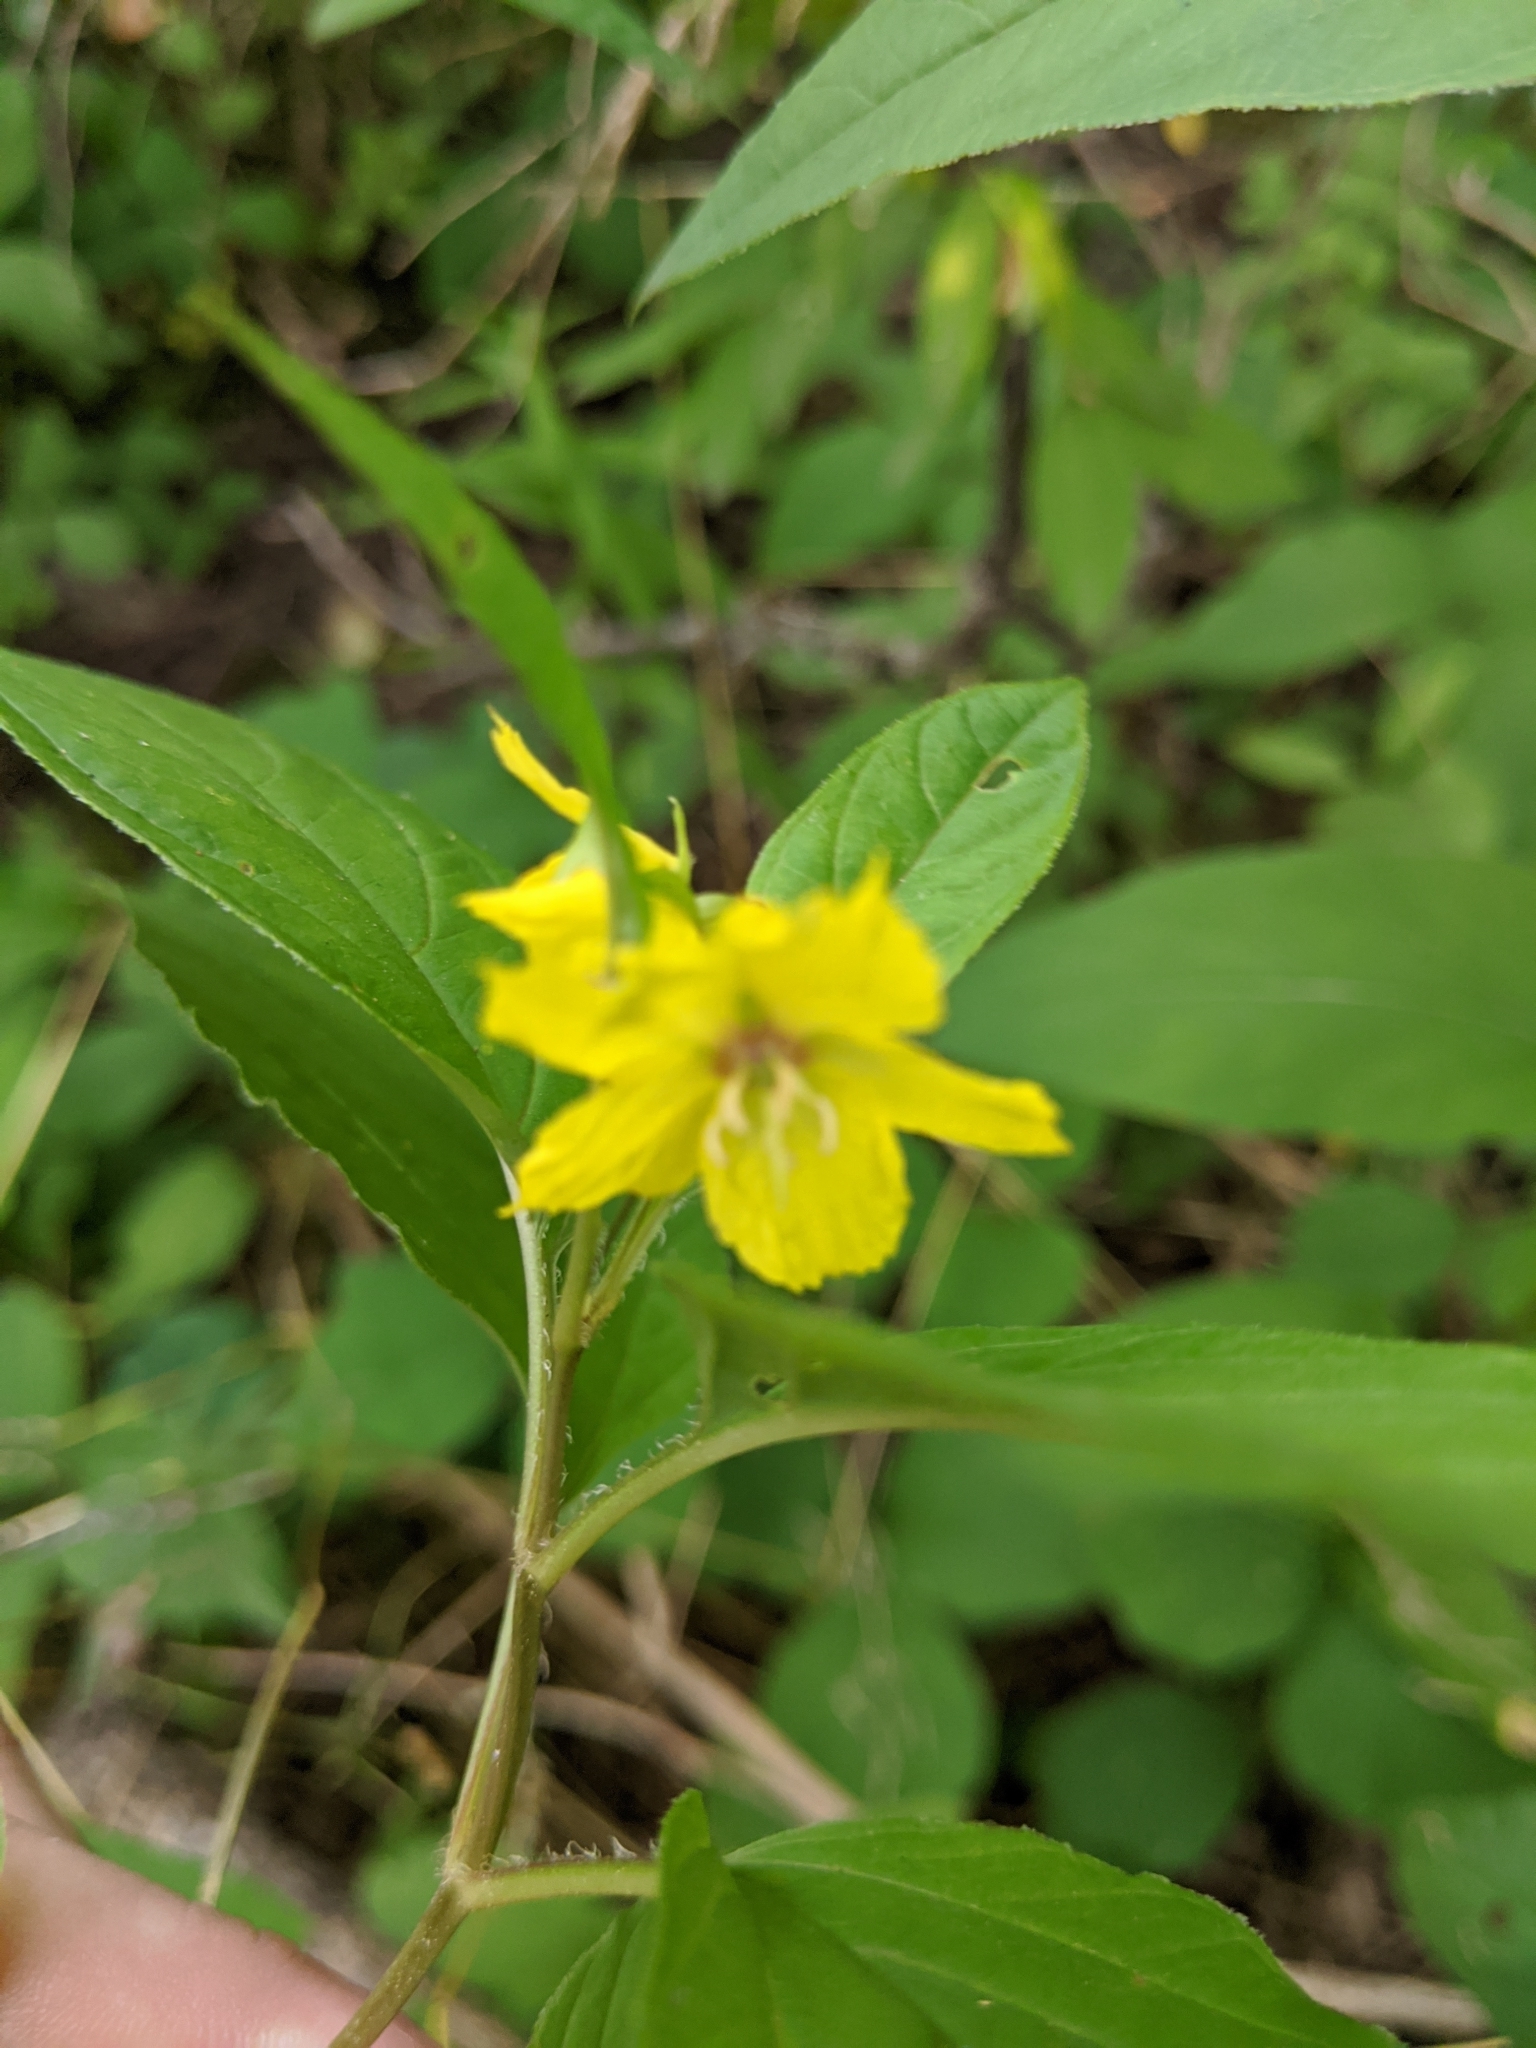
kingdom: Plantae
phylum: Tracheophyta
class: Magnoliopsida
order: Ericales
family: Primulaceae
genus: Lysimachia
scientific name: Lysimachia ciliata
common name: Fringed loosestrife
